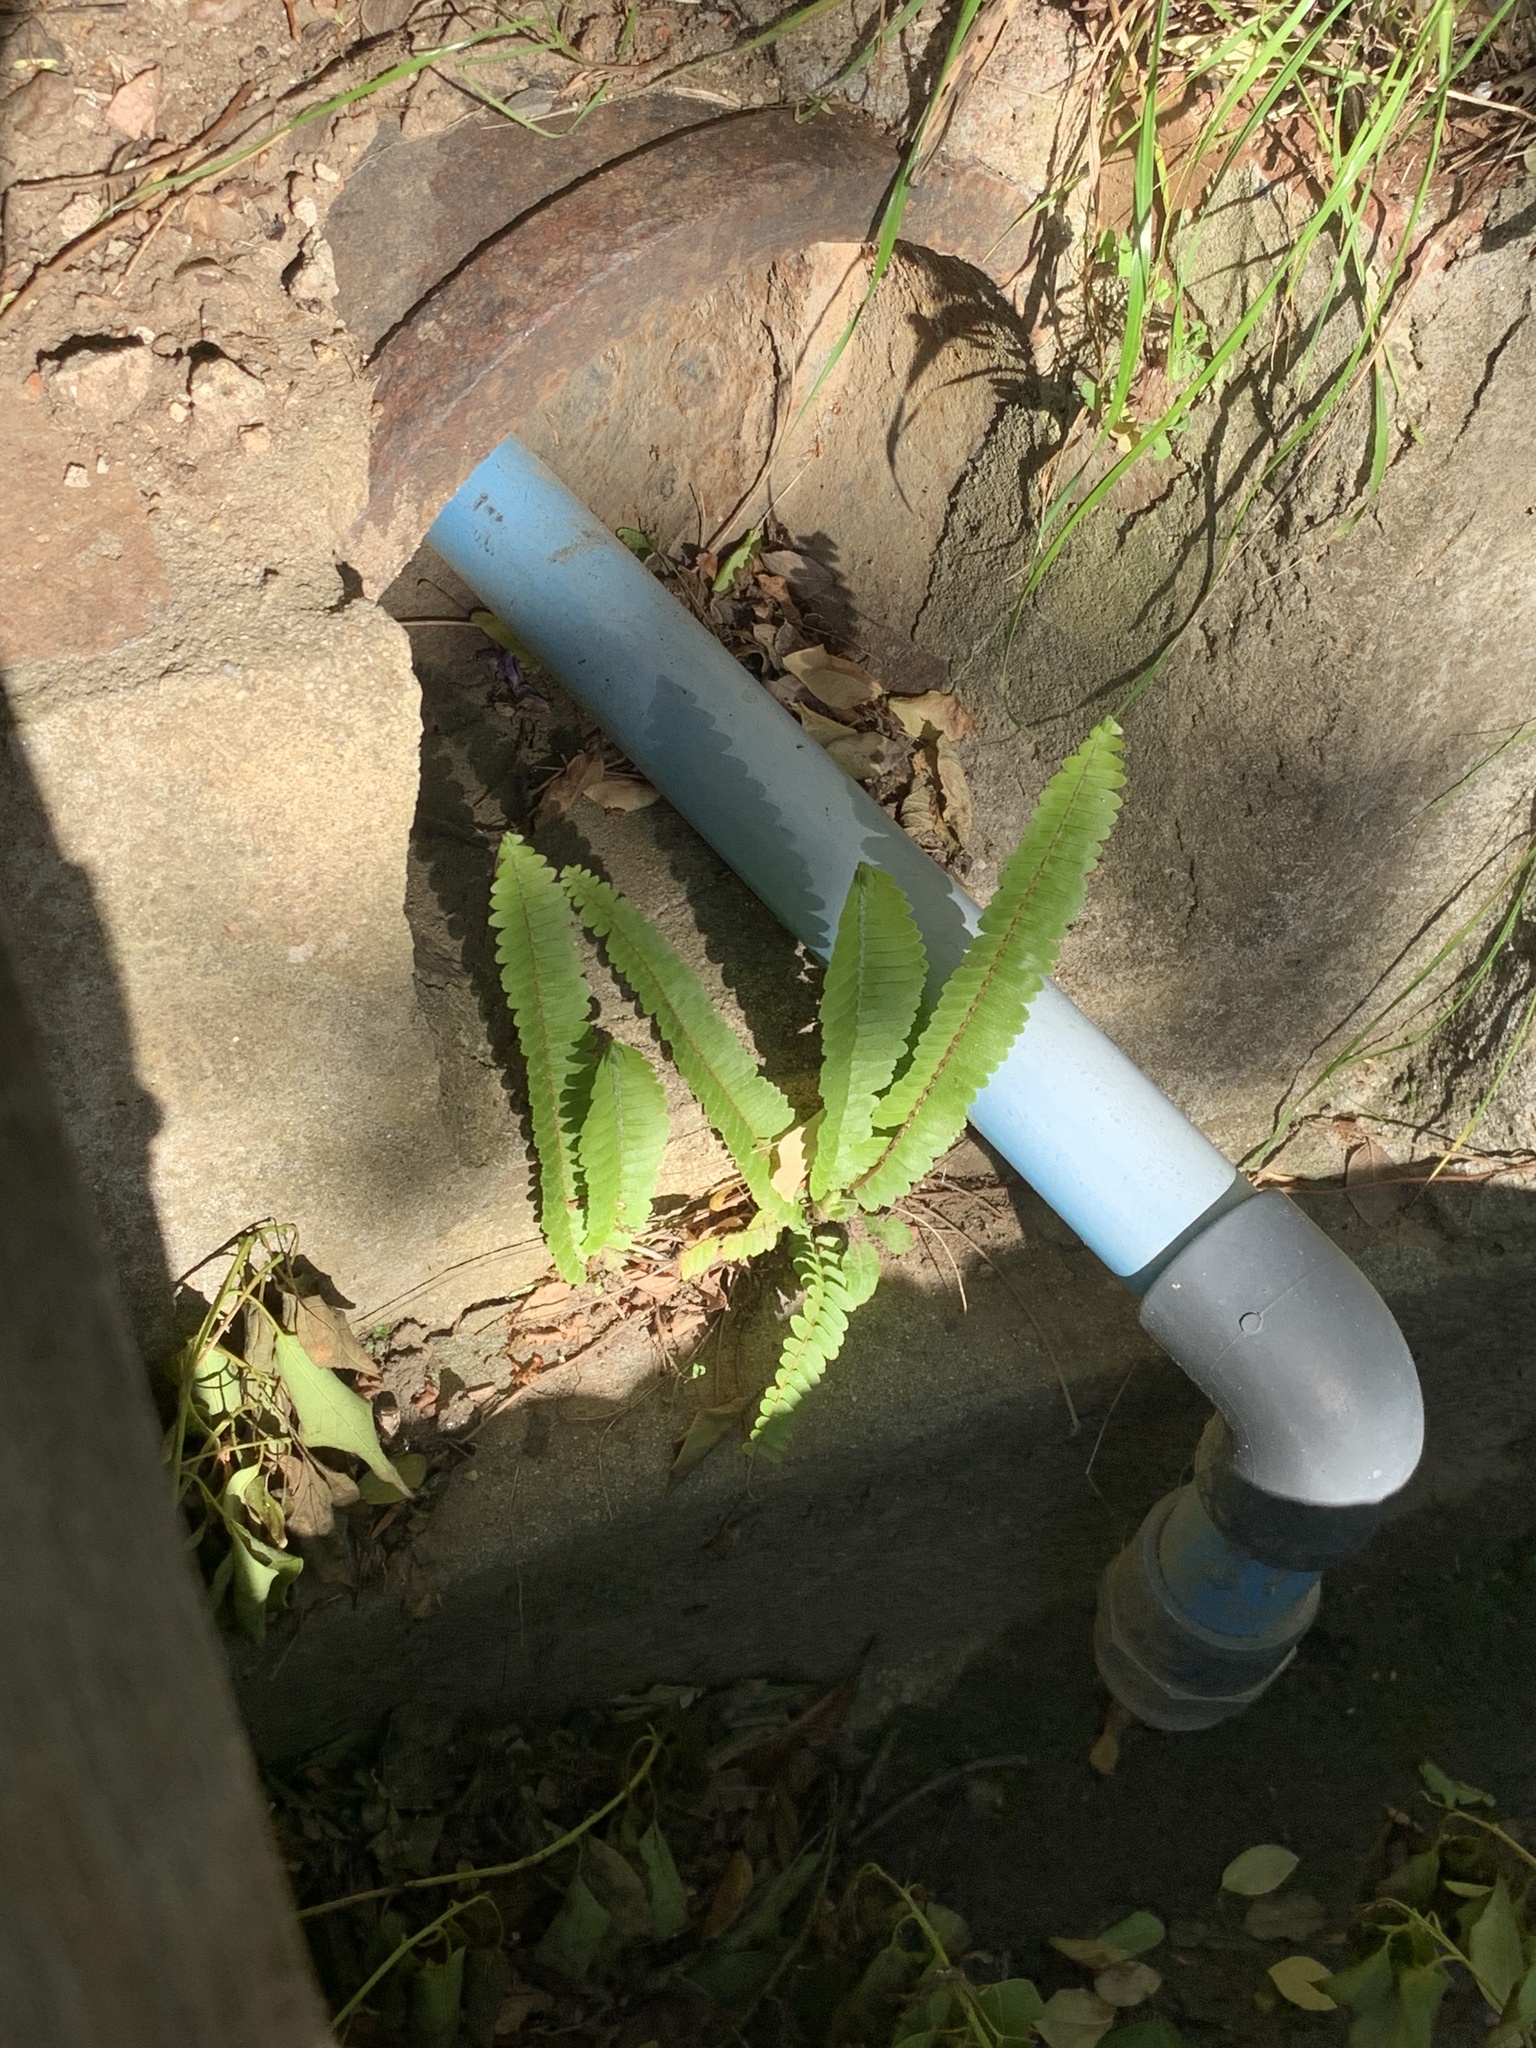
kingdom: Plantae
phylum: Tracheophyta
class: Polypodiopsida
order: Polypodiales
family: Nephrolepidaceae
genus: Nephrolepis
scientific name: Nephrolepis cordifolia
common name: Narrow swordfern
